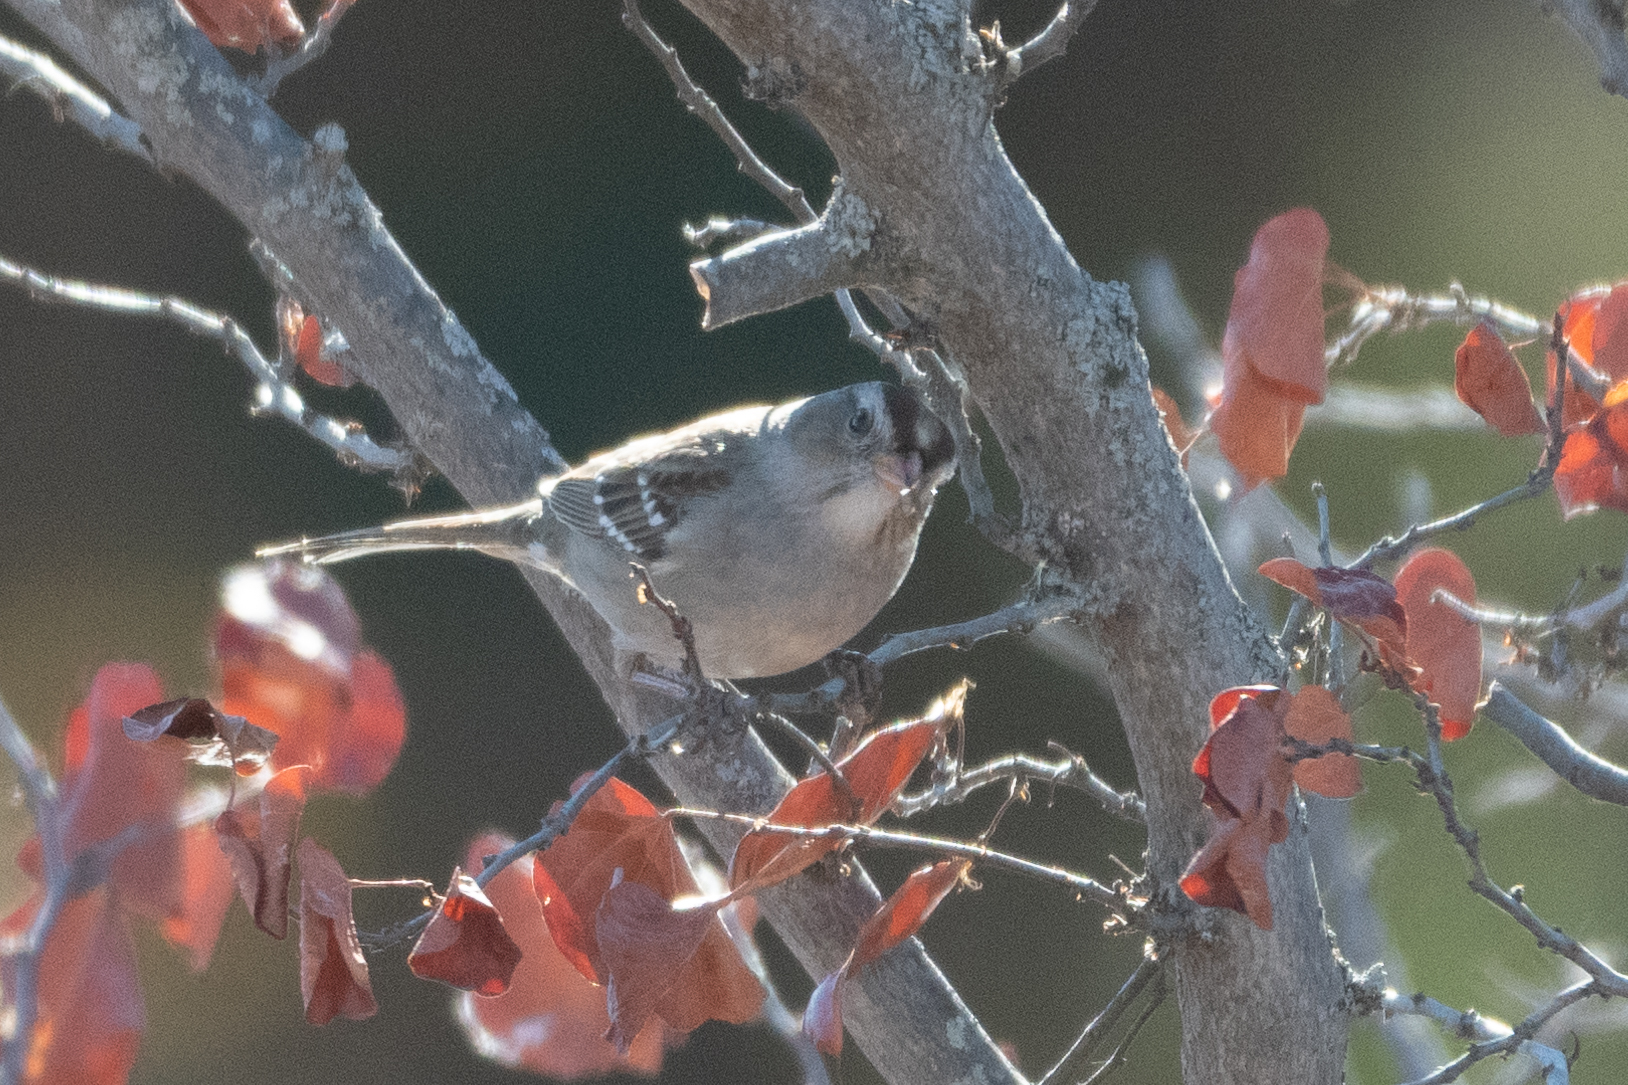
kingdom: Animalia
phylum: Chordata
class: Aves
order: Passeriformes
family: Passerellidae
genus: Zonotrichia
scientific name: Zonotrichia leucophrys
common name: White-crowned sparrow
